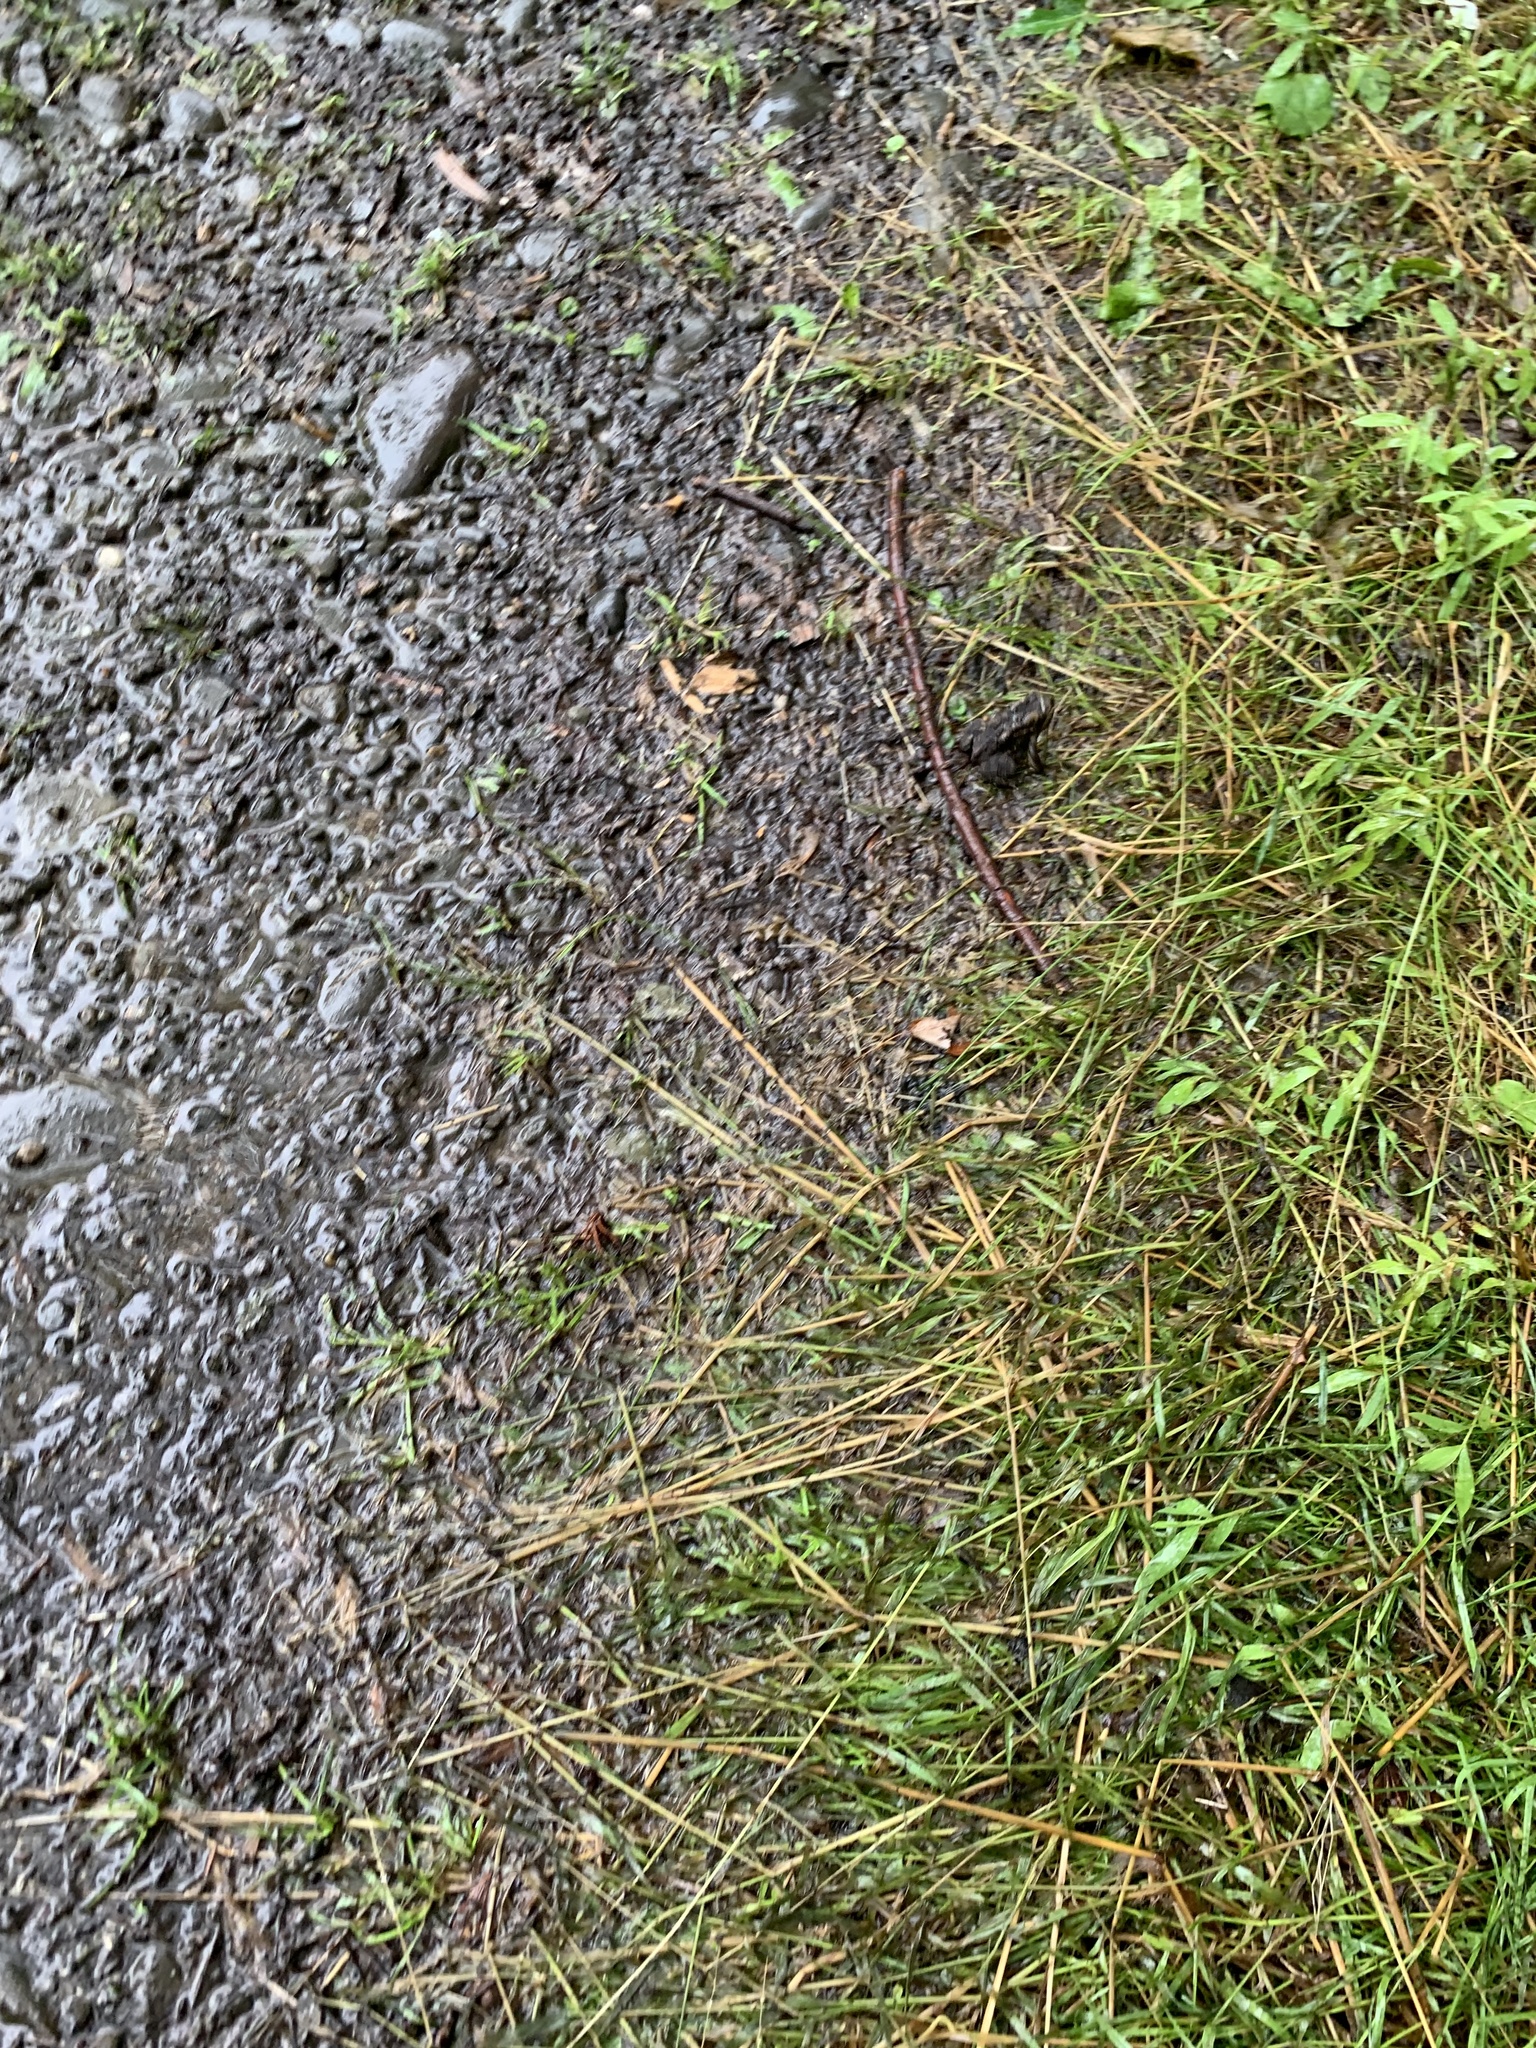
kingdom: Animalia
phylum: Chordata
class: Amphibia
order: Anura
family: Bufonidae
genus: Anaxyrus
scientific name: Anaxyrus americanus
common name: American toad
